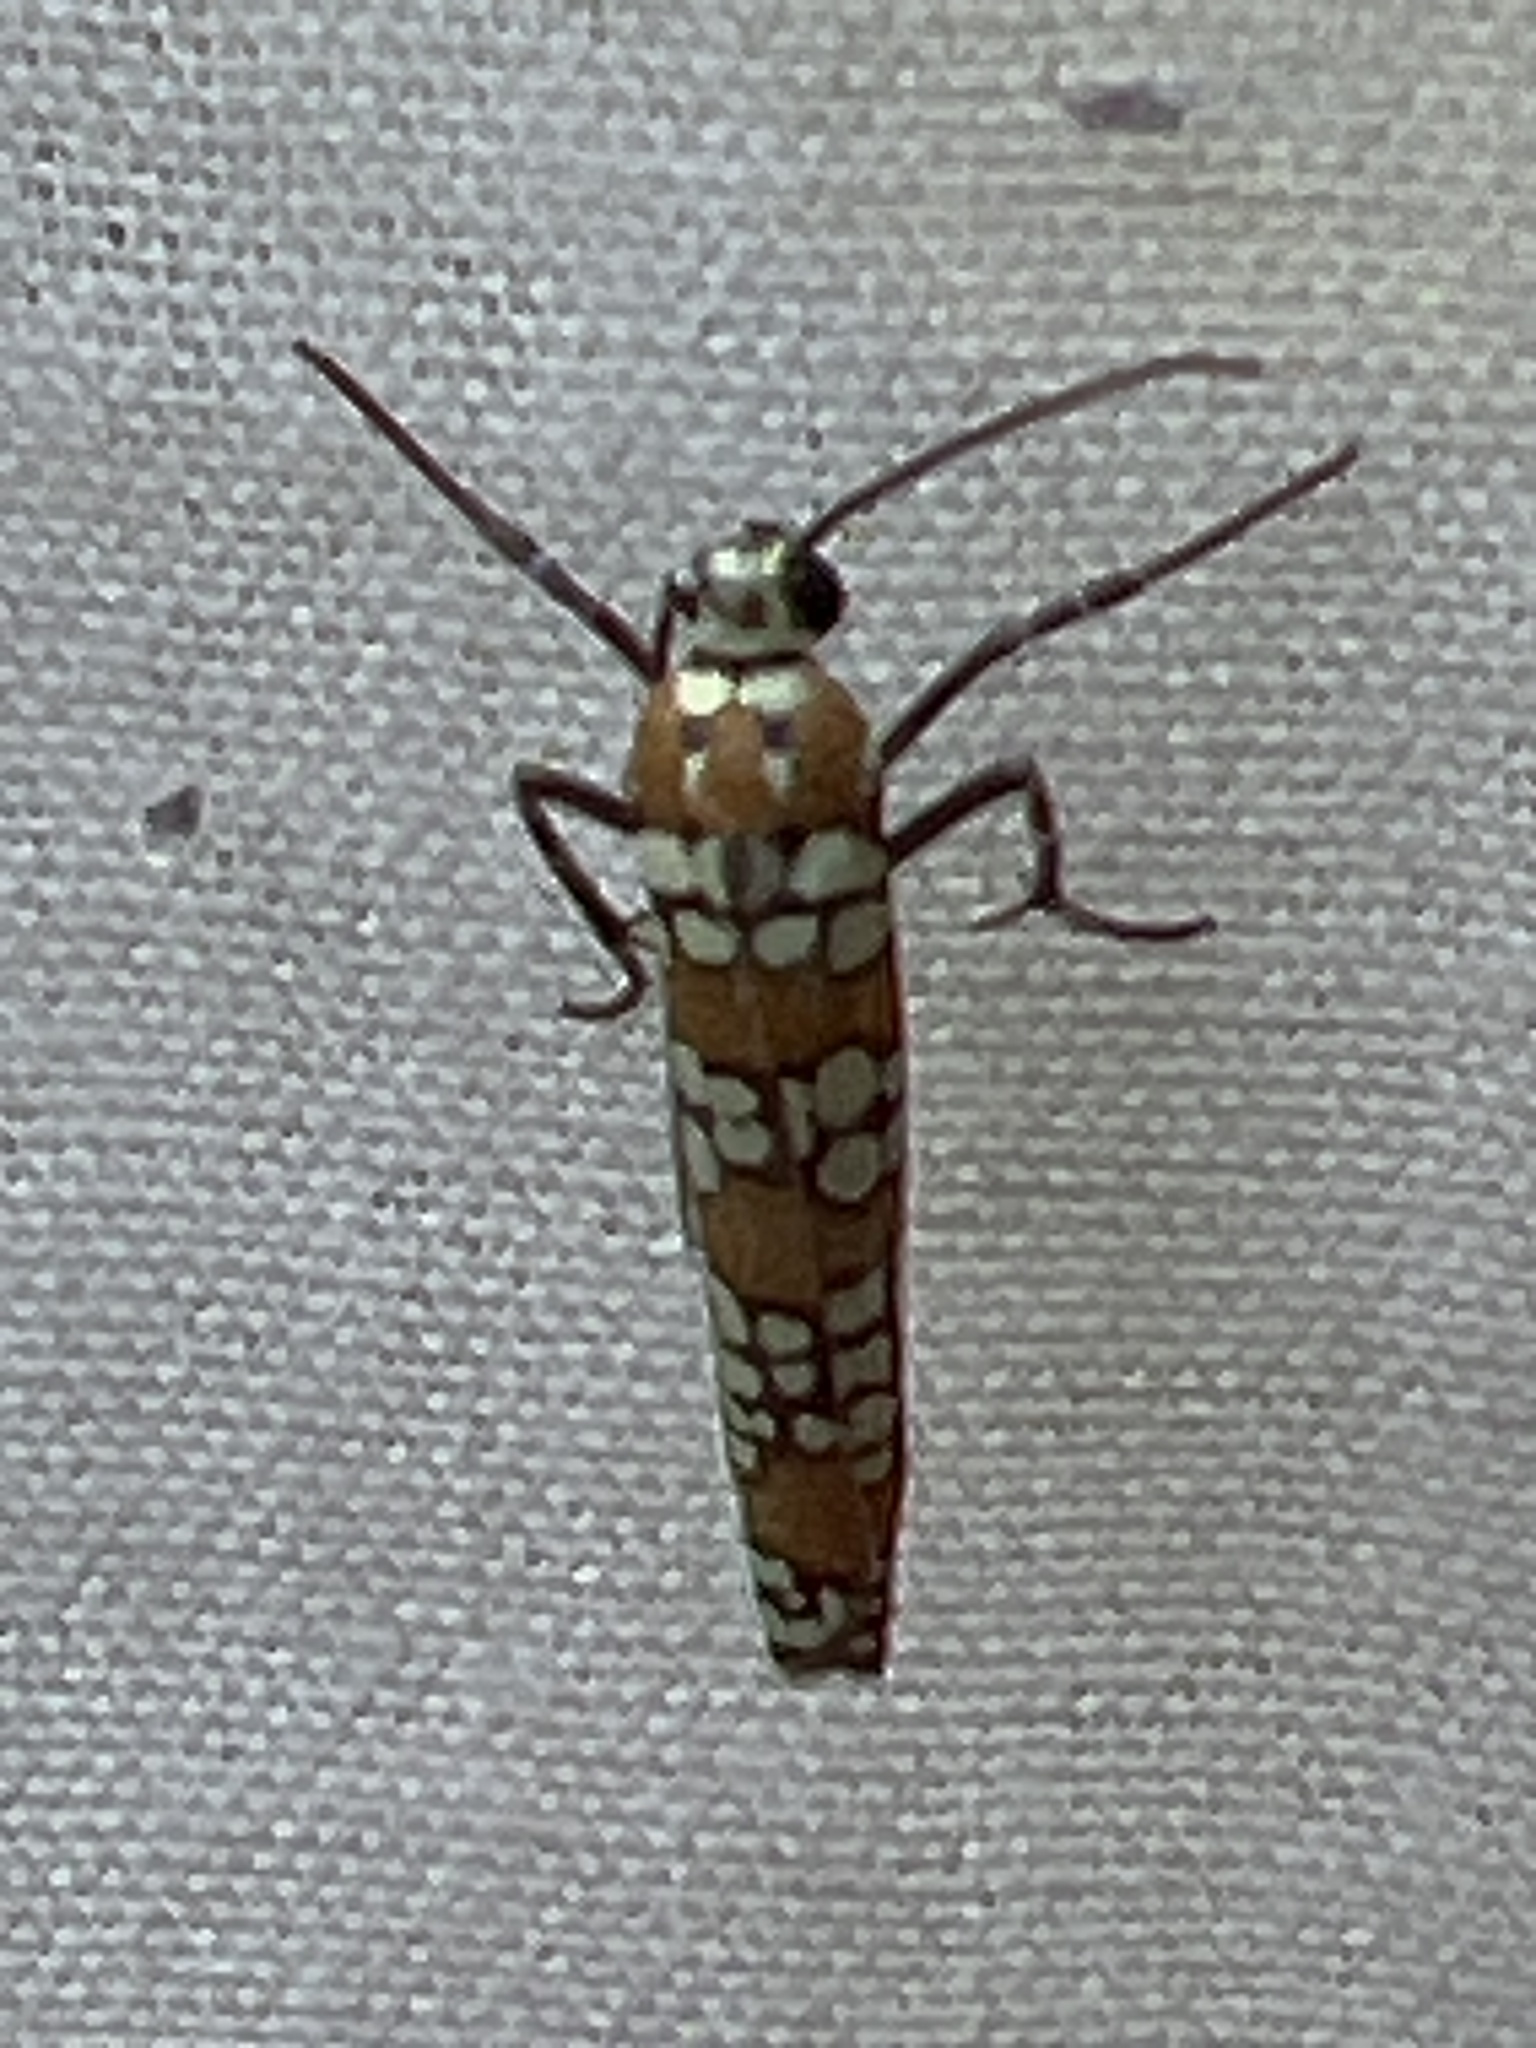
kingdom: Animalia
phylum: Arthropoda
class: Insecta
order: Lepidoptera
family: Attevidae
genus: Atteva
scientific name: Atteva punctella
